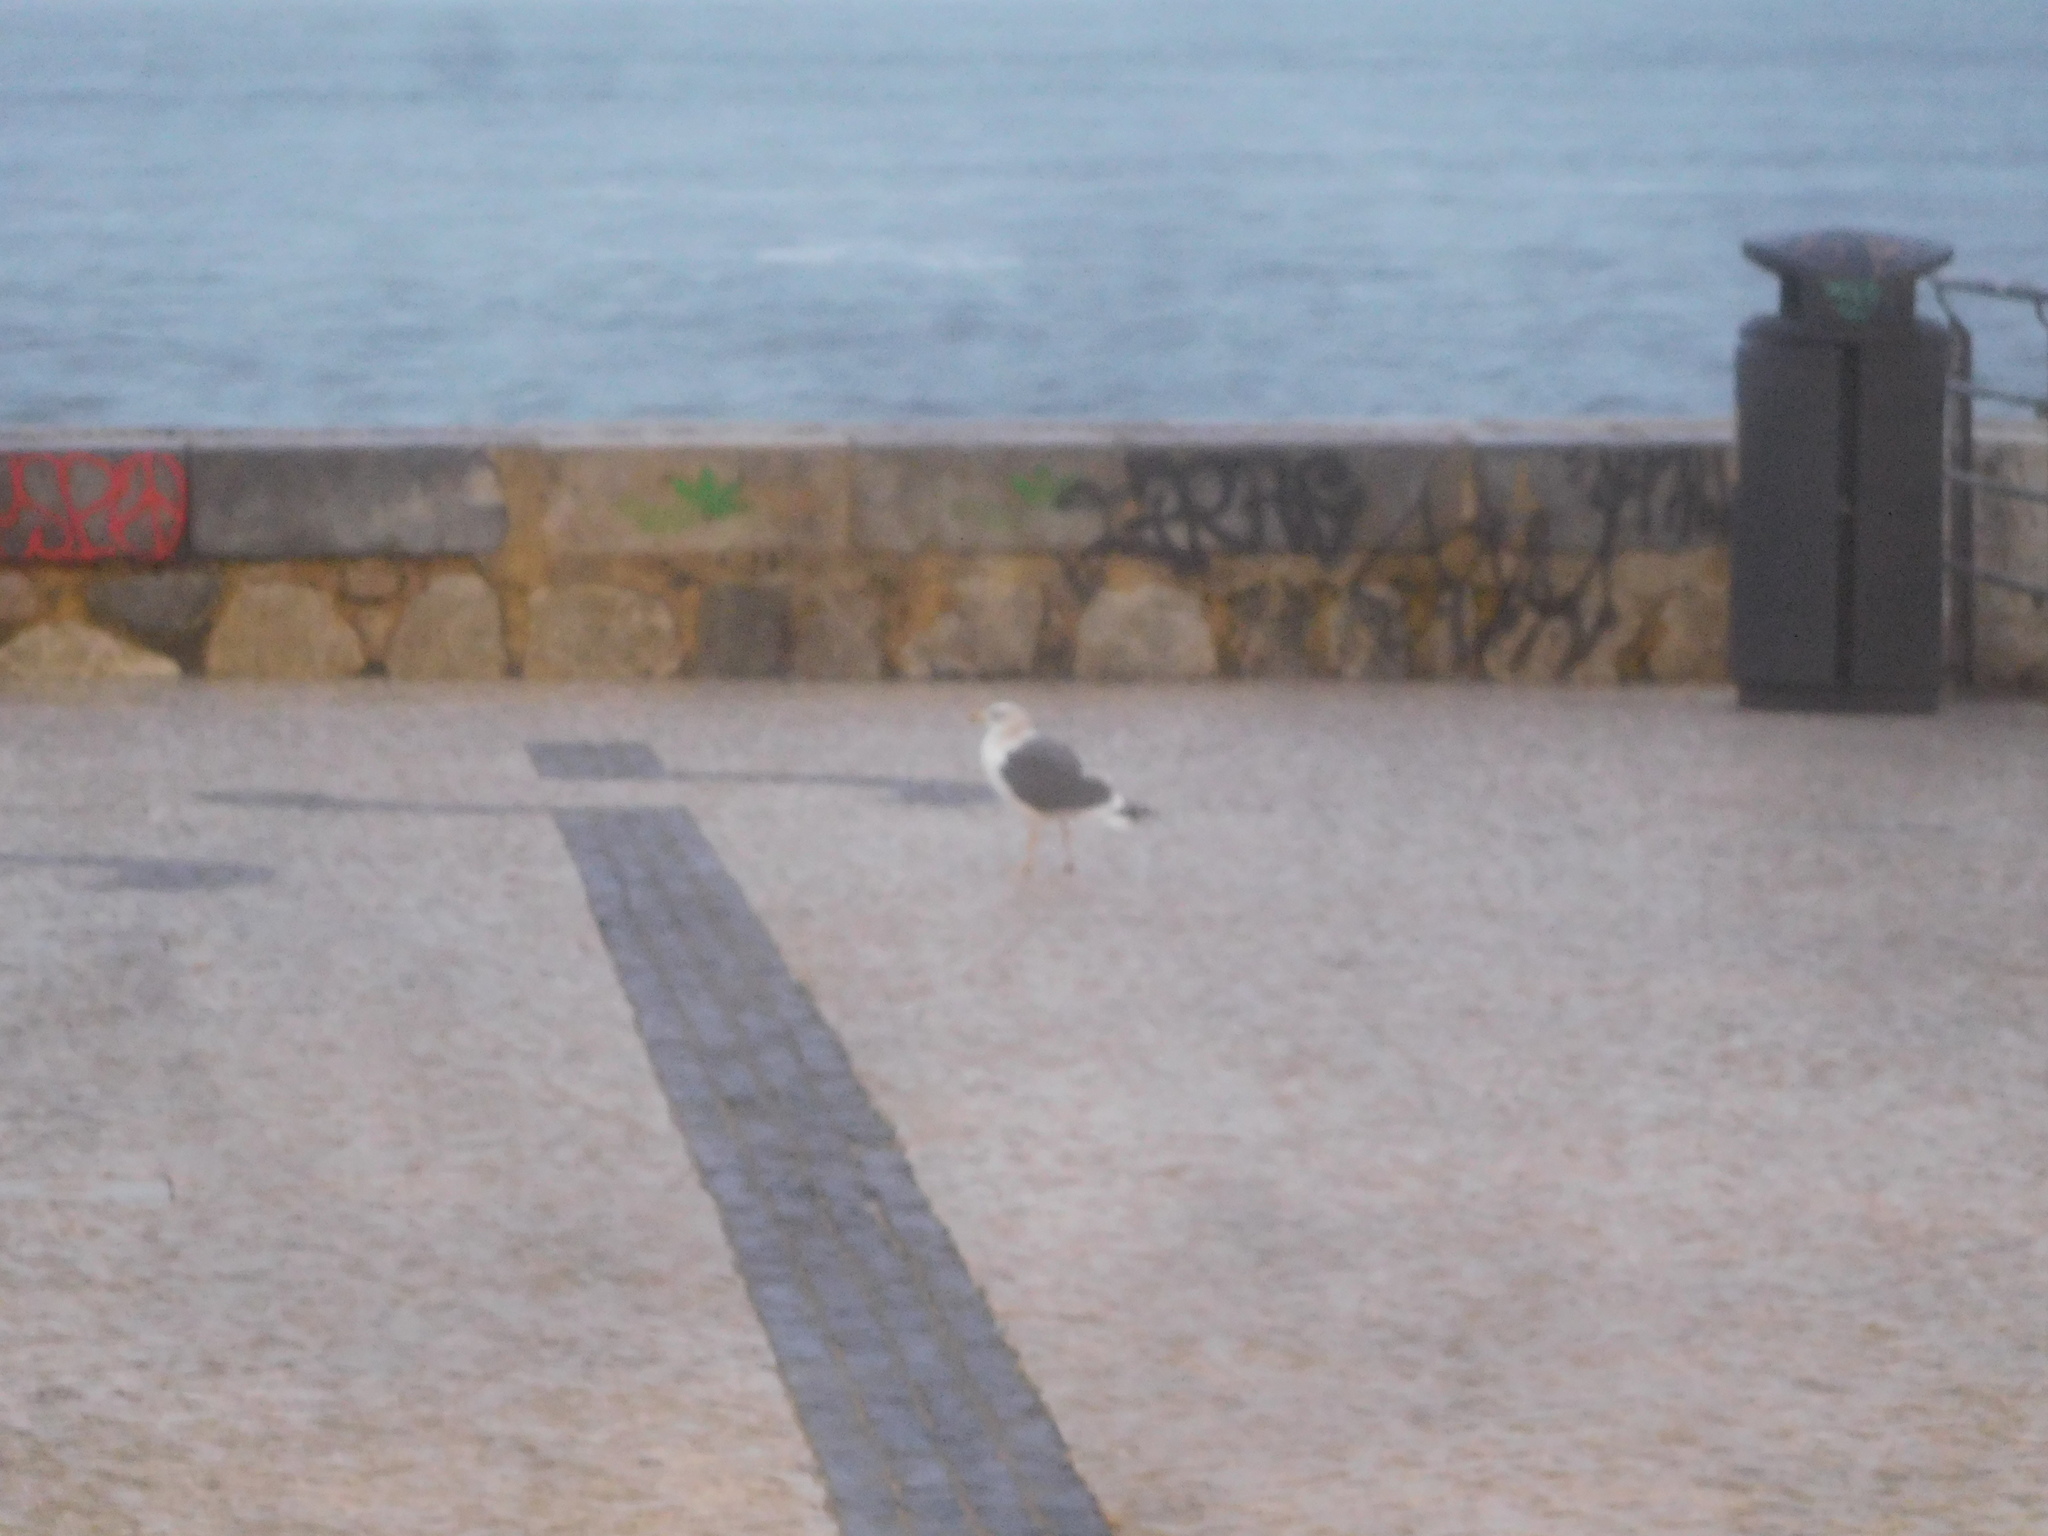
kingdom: Animalia
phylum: Chordata
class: Aves
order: Charadriiformes
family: Laridae
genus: Larus
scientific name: Larus fuscus
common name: Lesser black-backed gull
